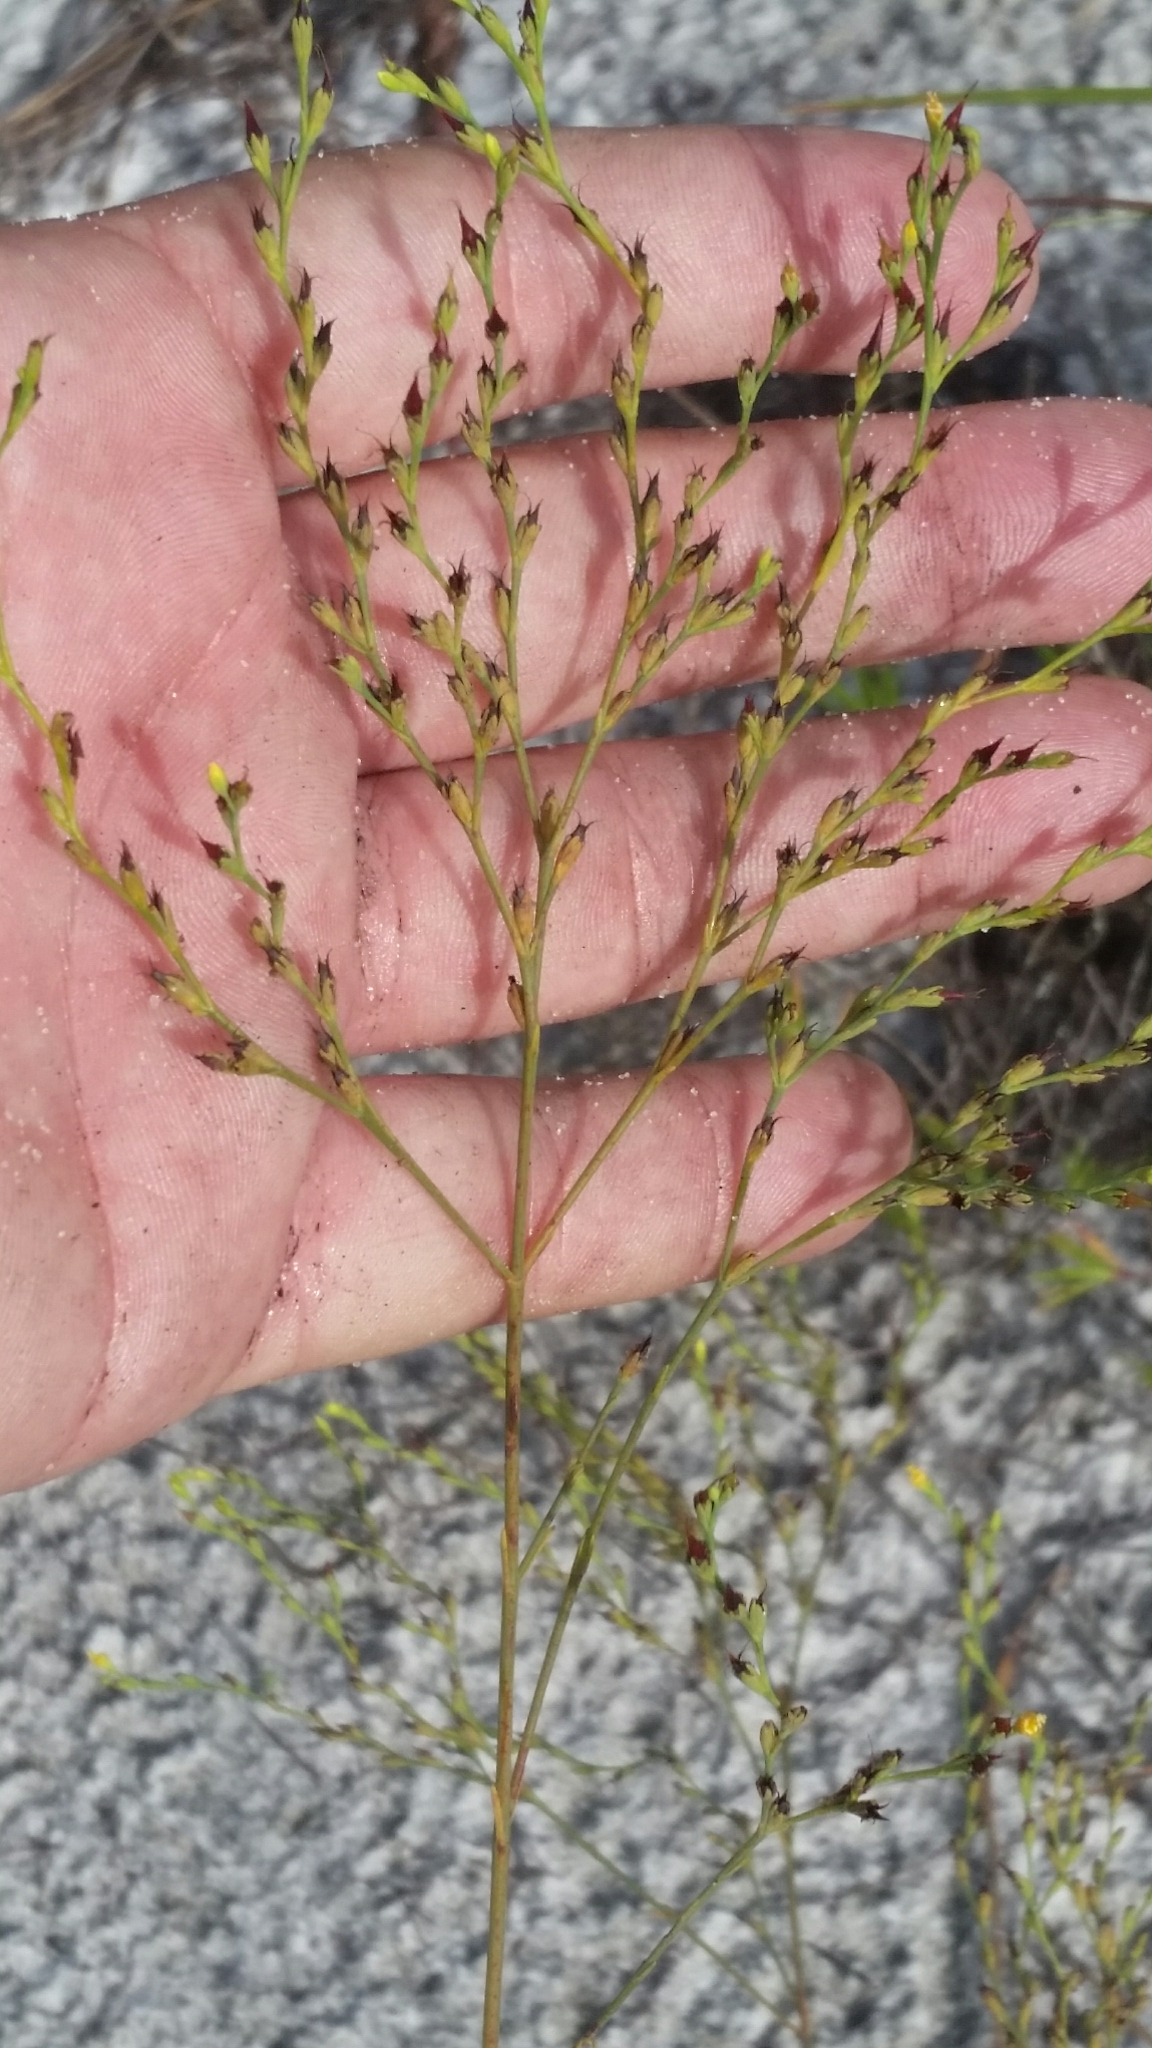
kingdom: Plantae
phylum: Tracheophyta
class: Magnoliopsida
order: Malpighiales
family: Hypericaceae
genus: Hypericum
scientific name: Hypericum cumulicola
